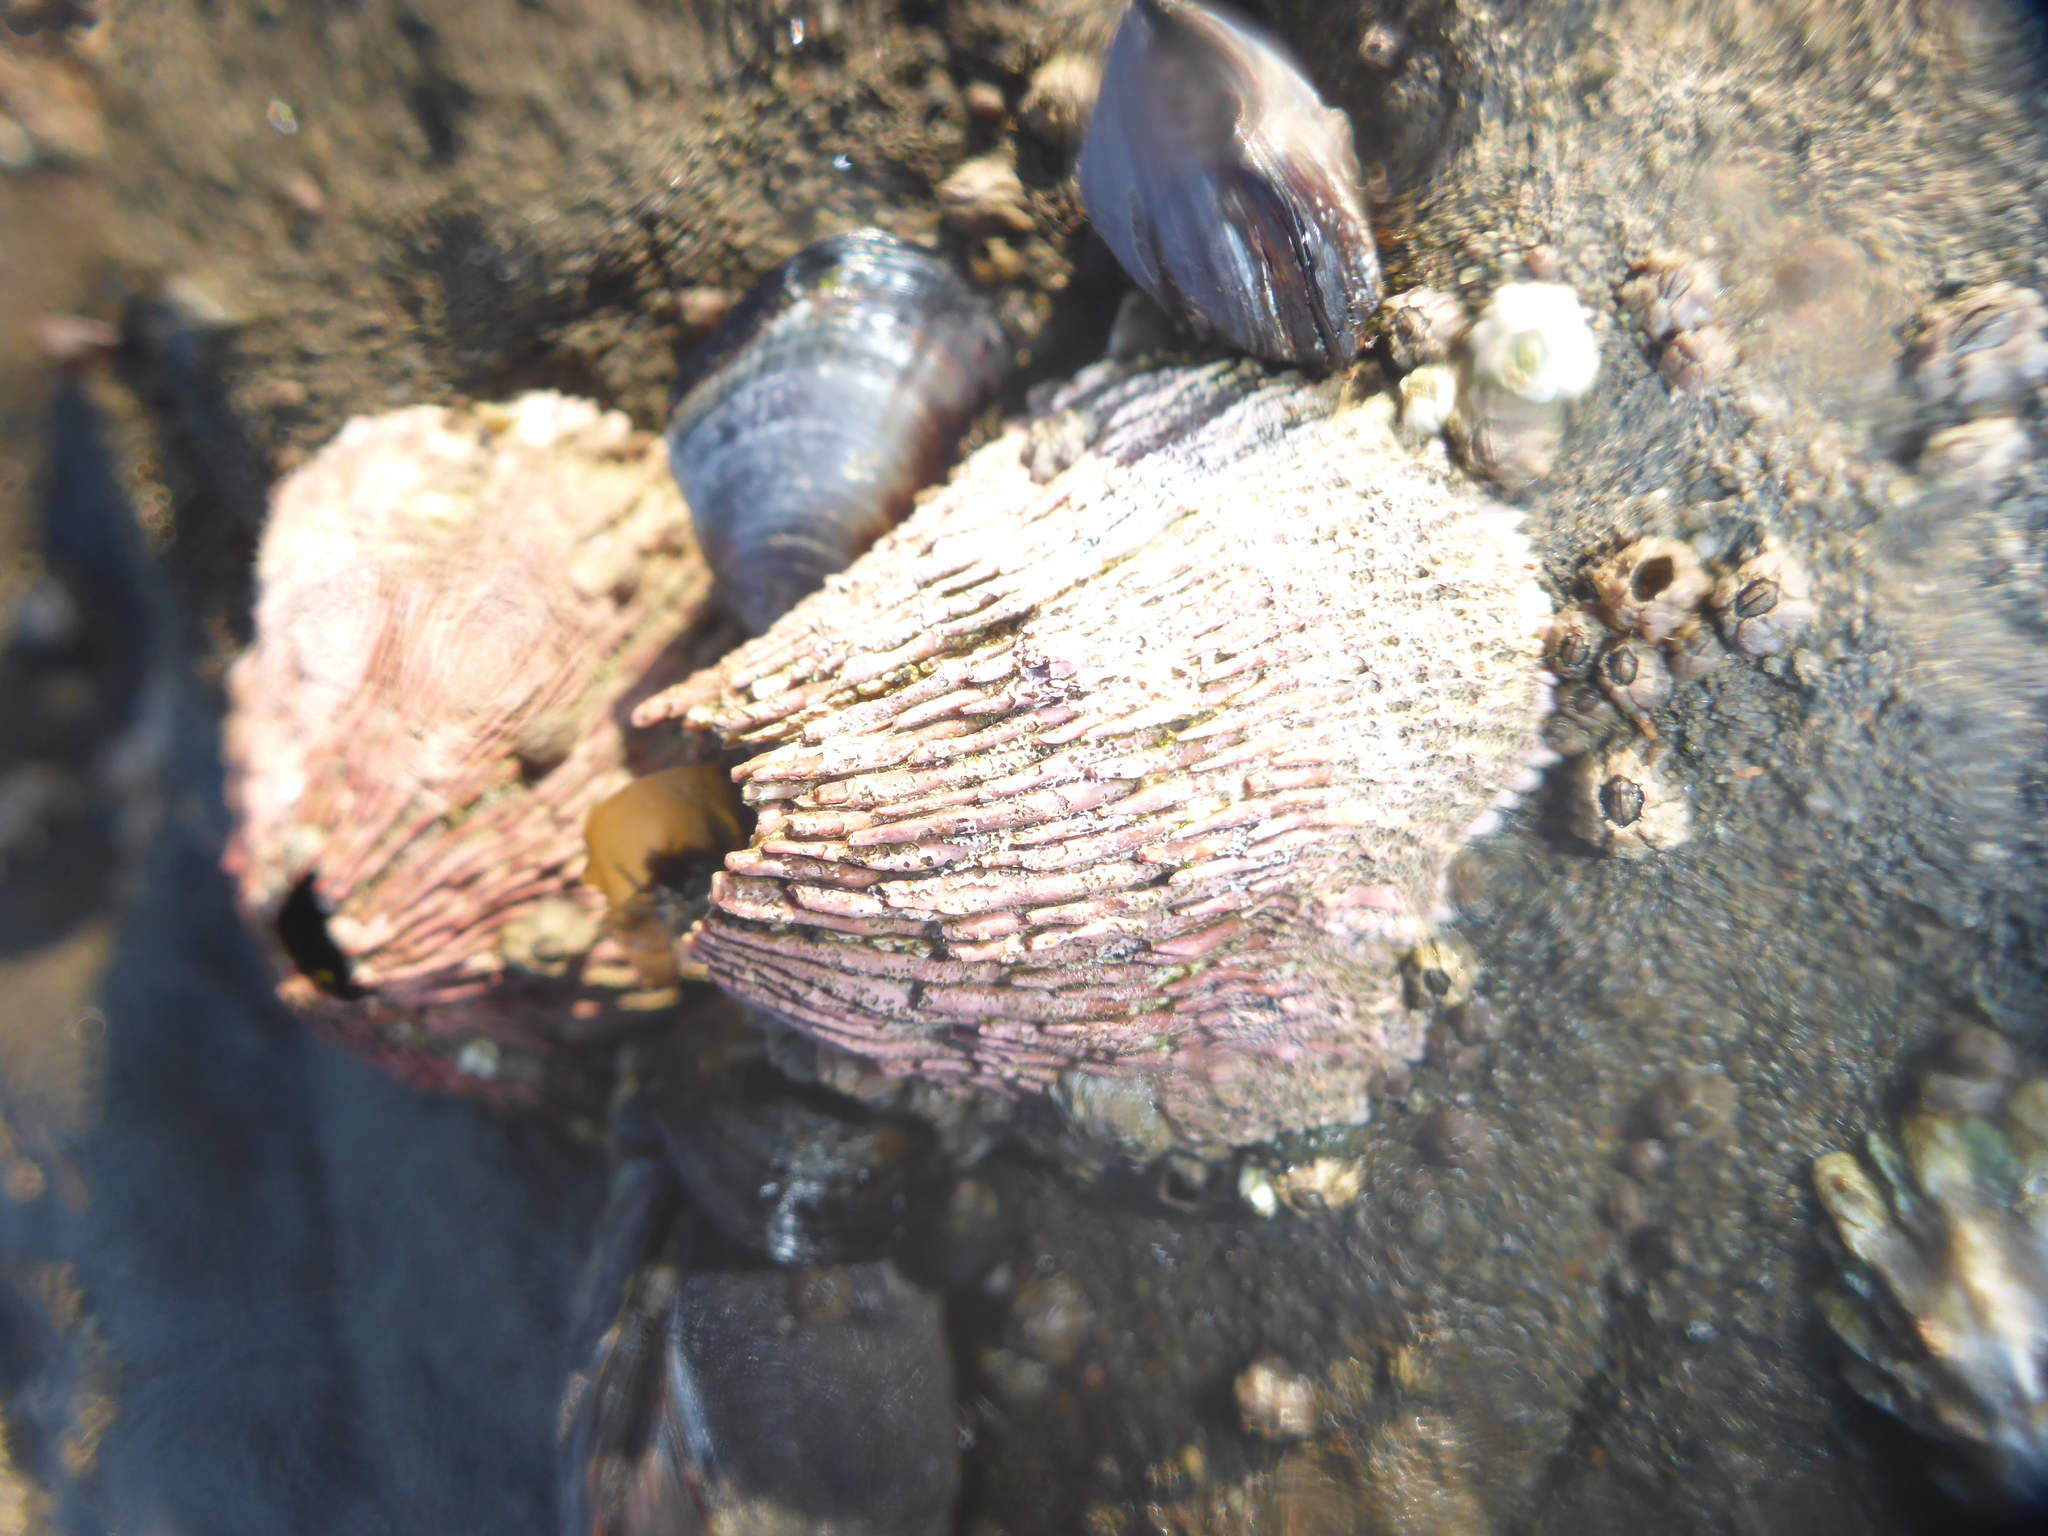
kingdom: Animalia
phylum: Arthropoda
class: Maxillopoda
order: Sessilia
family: Tetraclitidae
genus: Tetraclita
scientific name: Tetraclita rubescens
